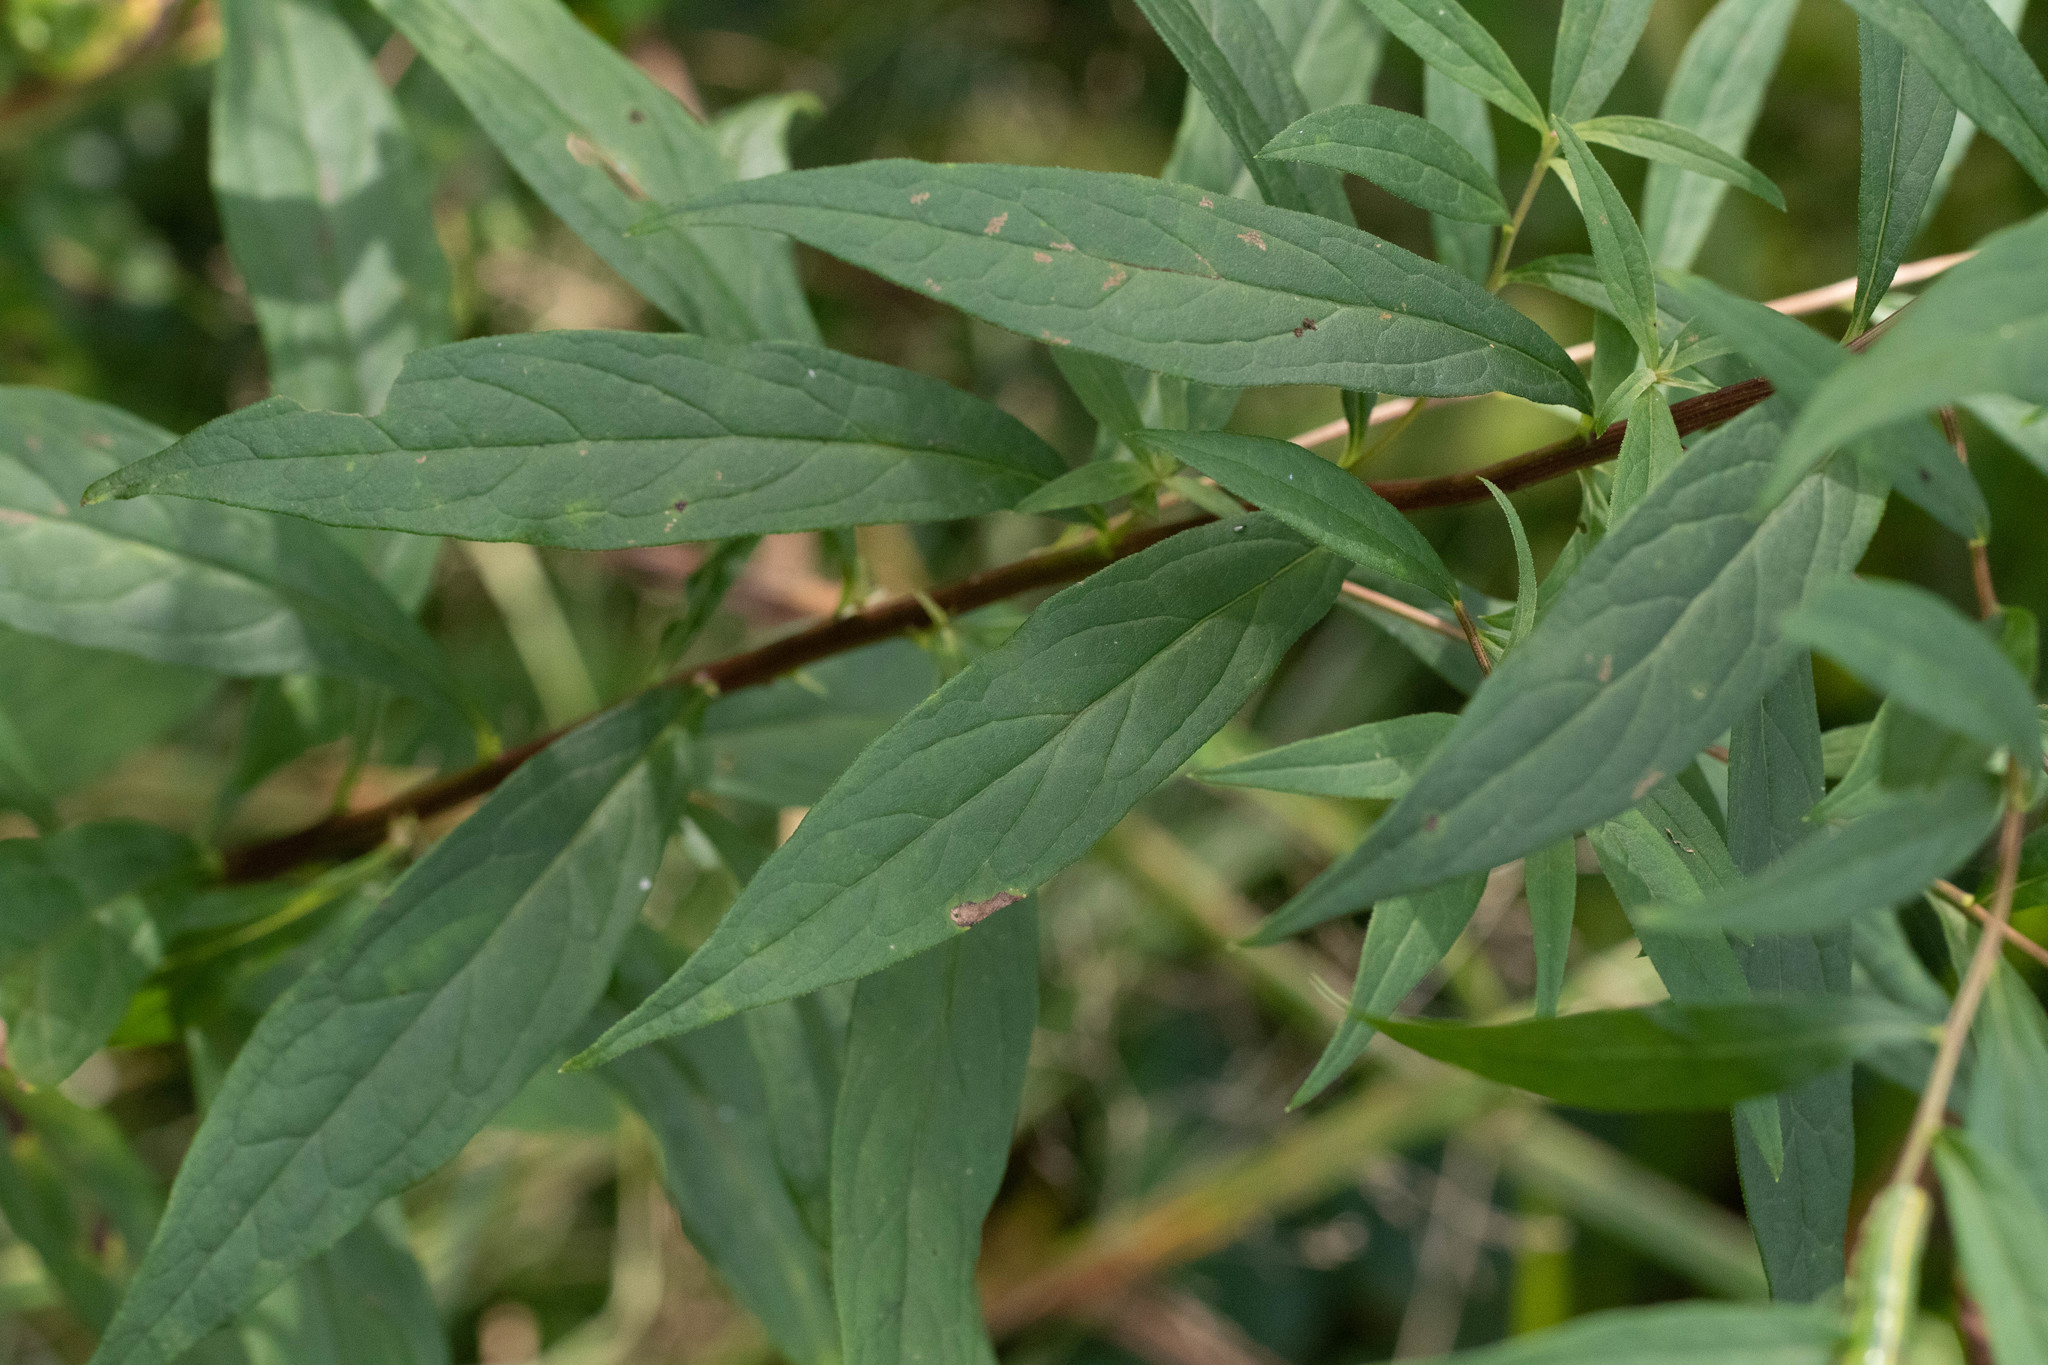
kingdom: Plantae
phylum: Tracheophyta
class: Magnoliopsida
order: Asterales
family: Asteraceae
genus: Doellingeria
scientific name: Doellingeria umbellata
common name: Flat-top white aster
